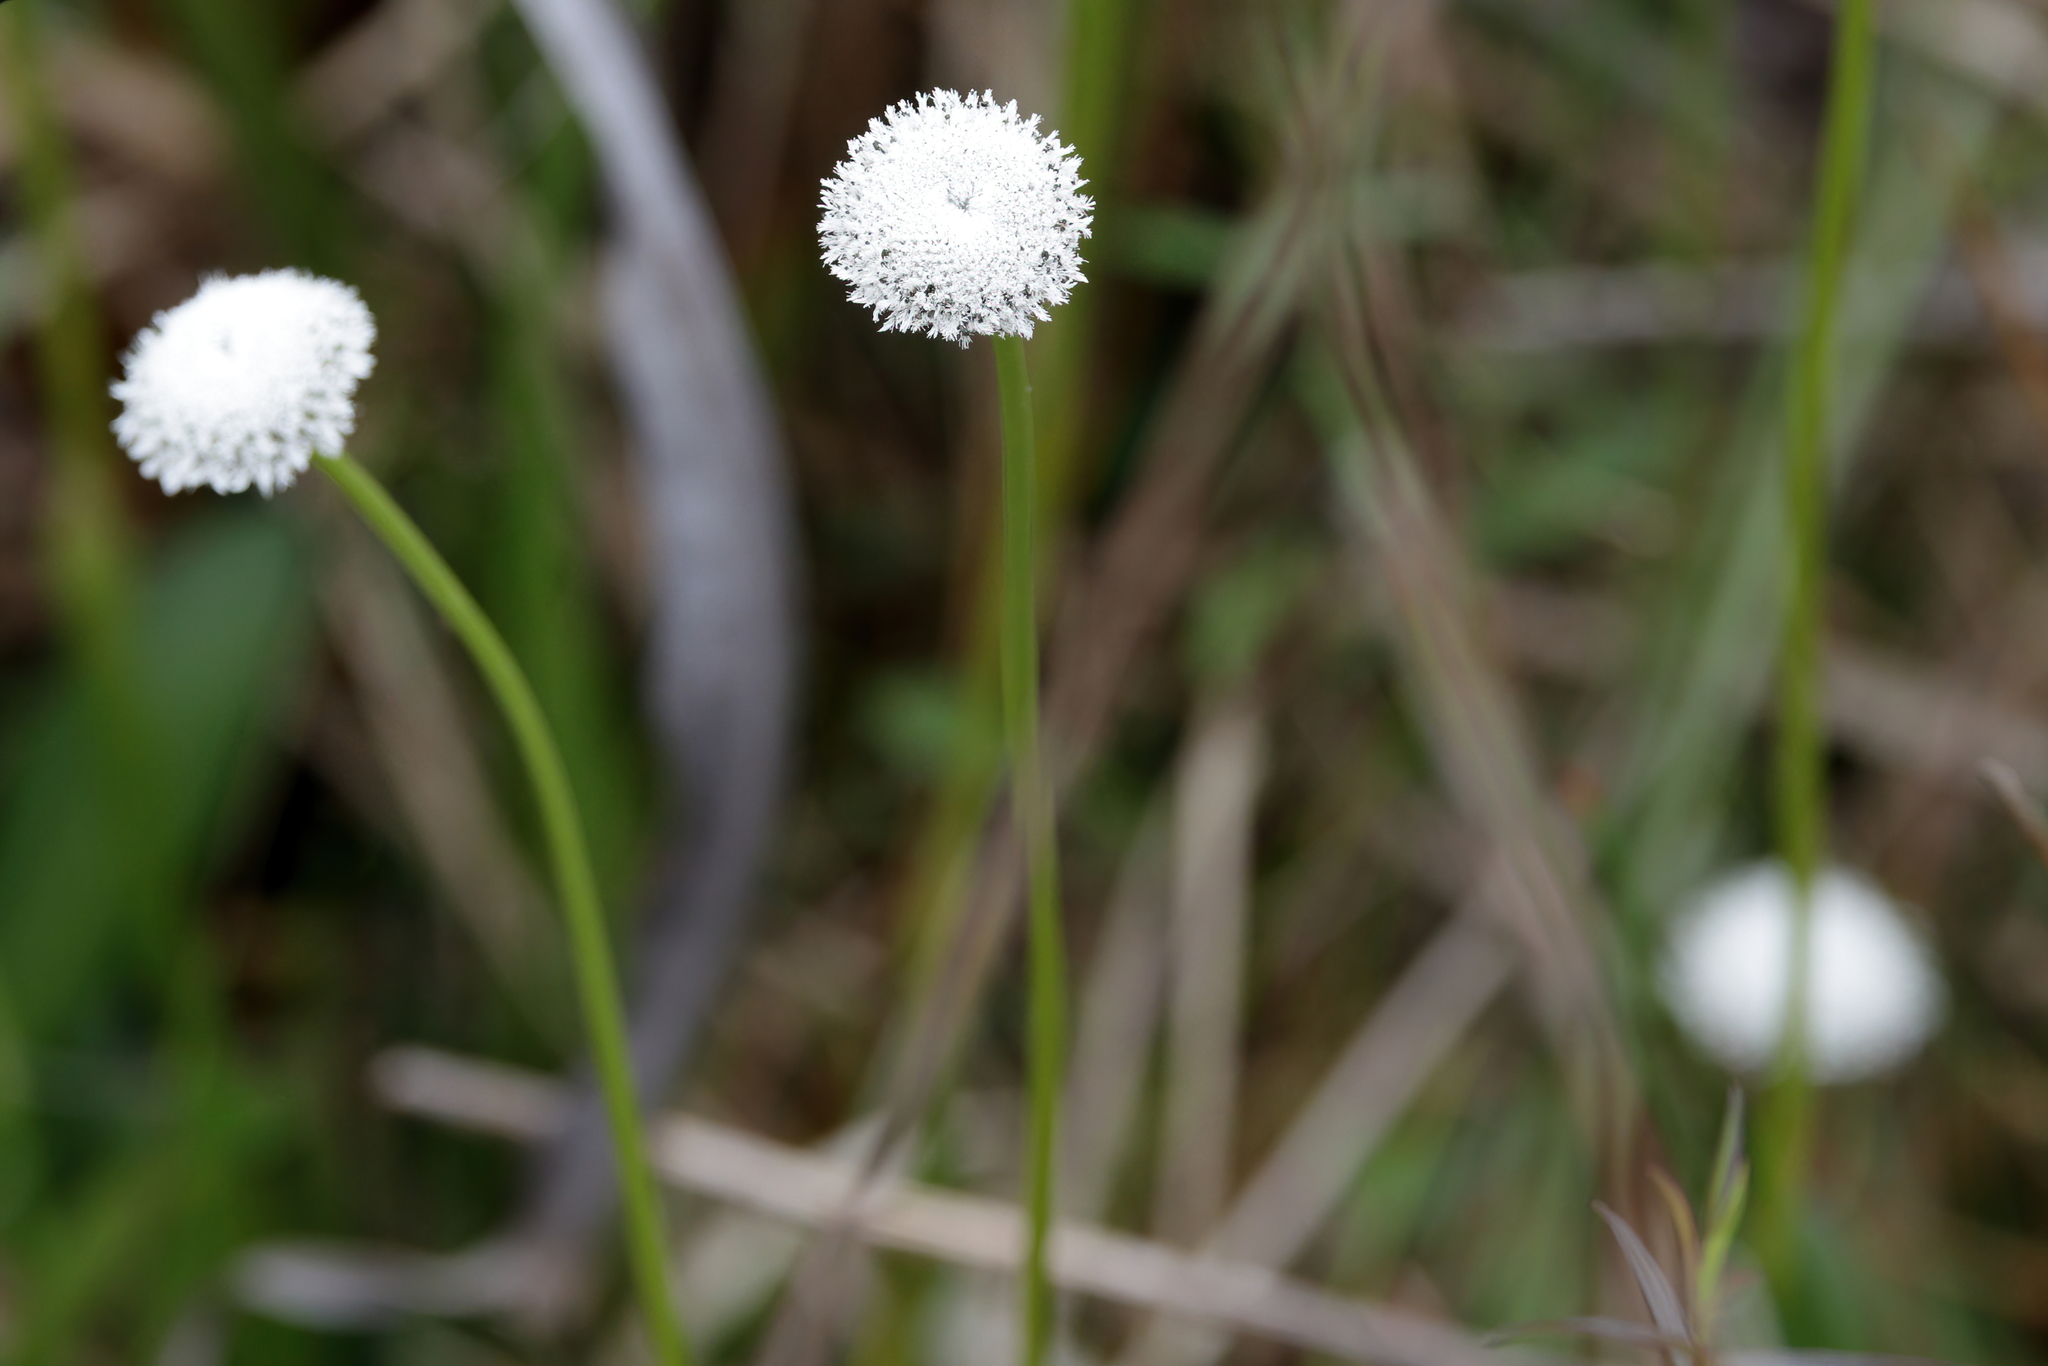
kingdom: Plantae
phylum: Tracheophyta
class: Liliopsida
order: Poales
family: Eriocaulaceae
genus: Eriocaulon
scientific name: Eriocaulon compressum
